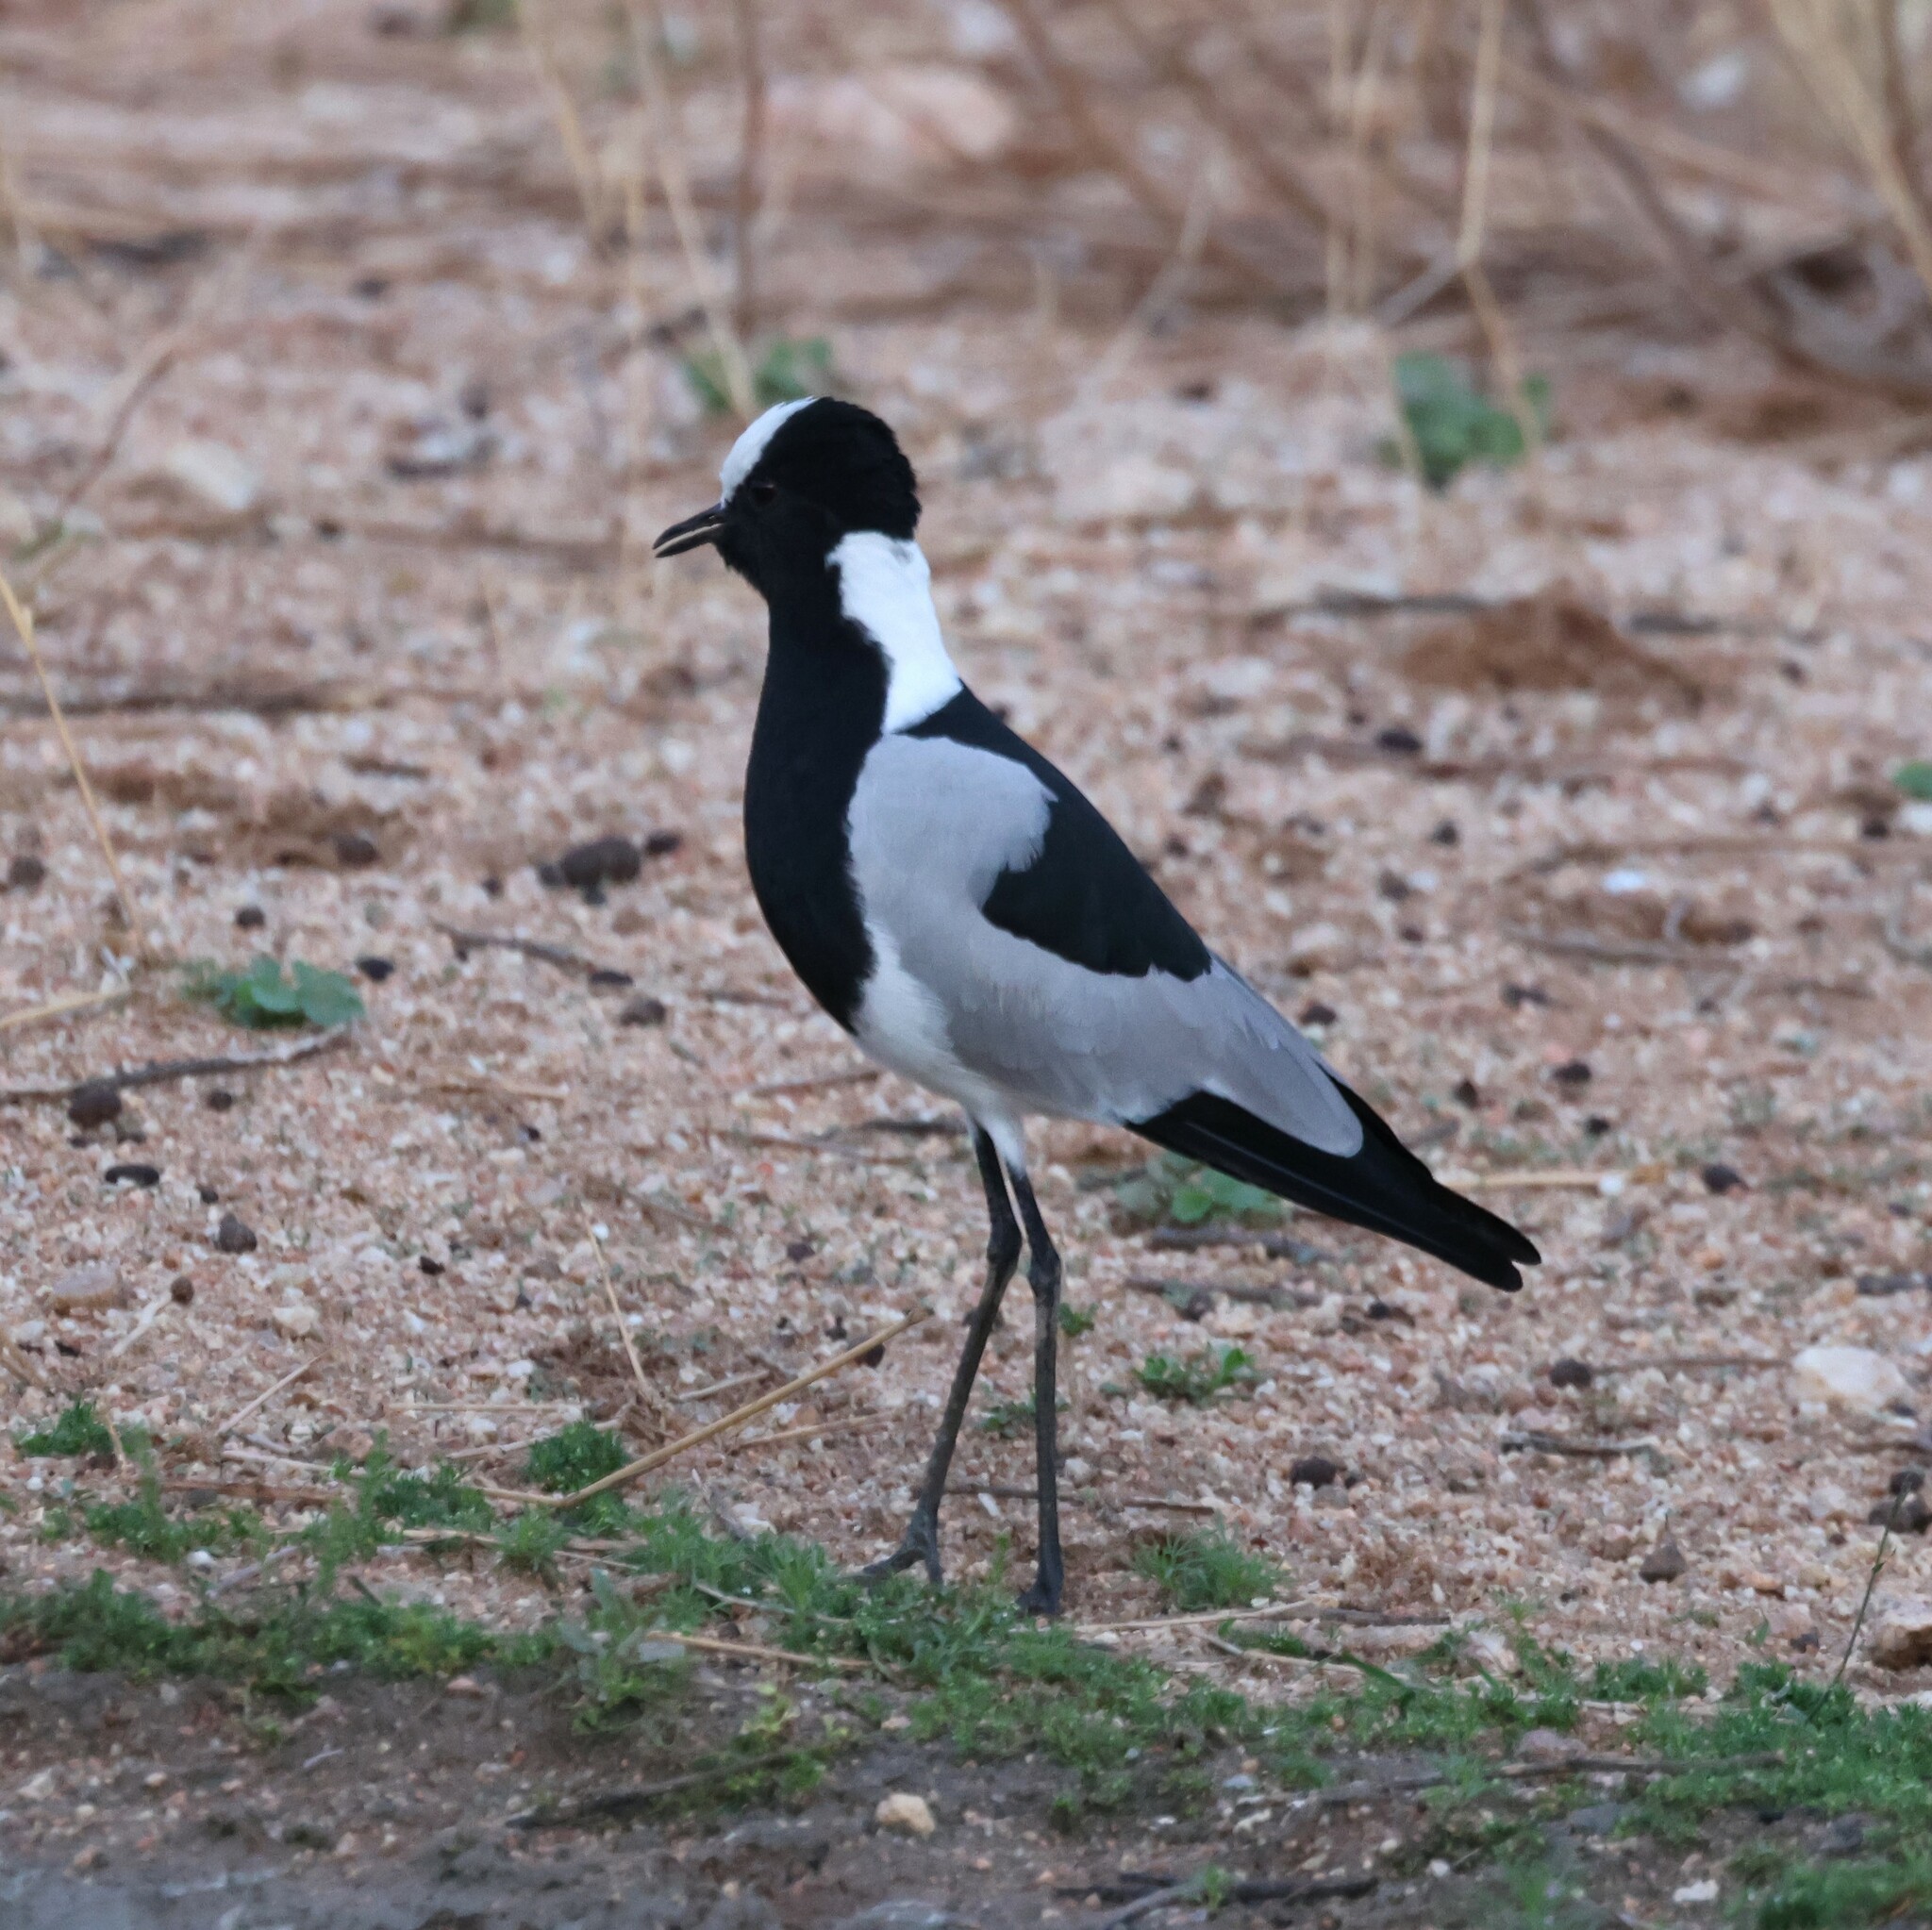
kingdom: Animalia
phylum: Chordata
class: Aves
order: Charadriiformes
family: Charadriidae
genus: Vanellus
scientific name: Vanellus armatus
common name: Blacksmith lapwing
